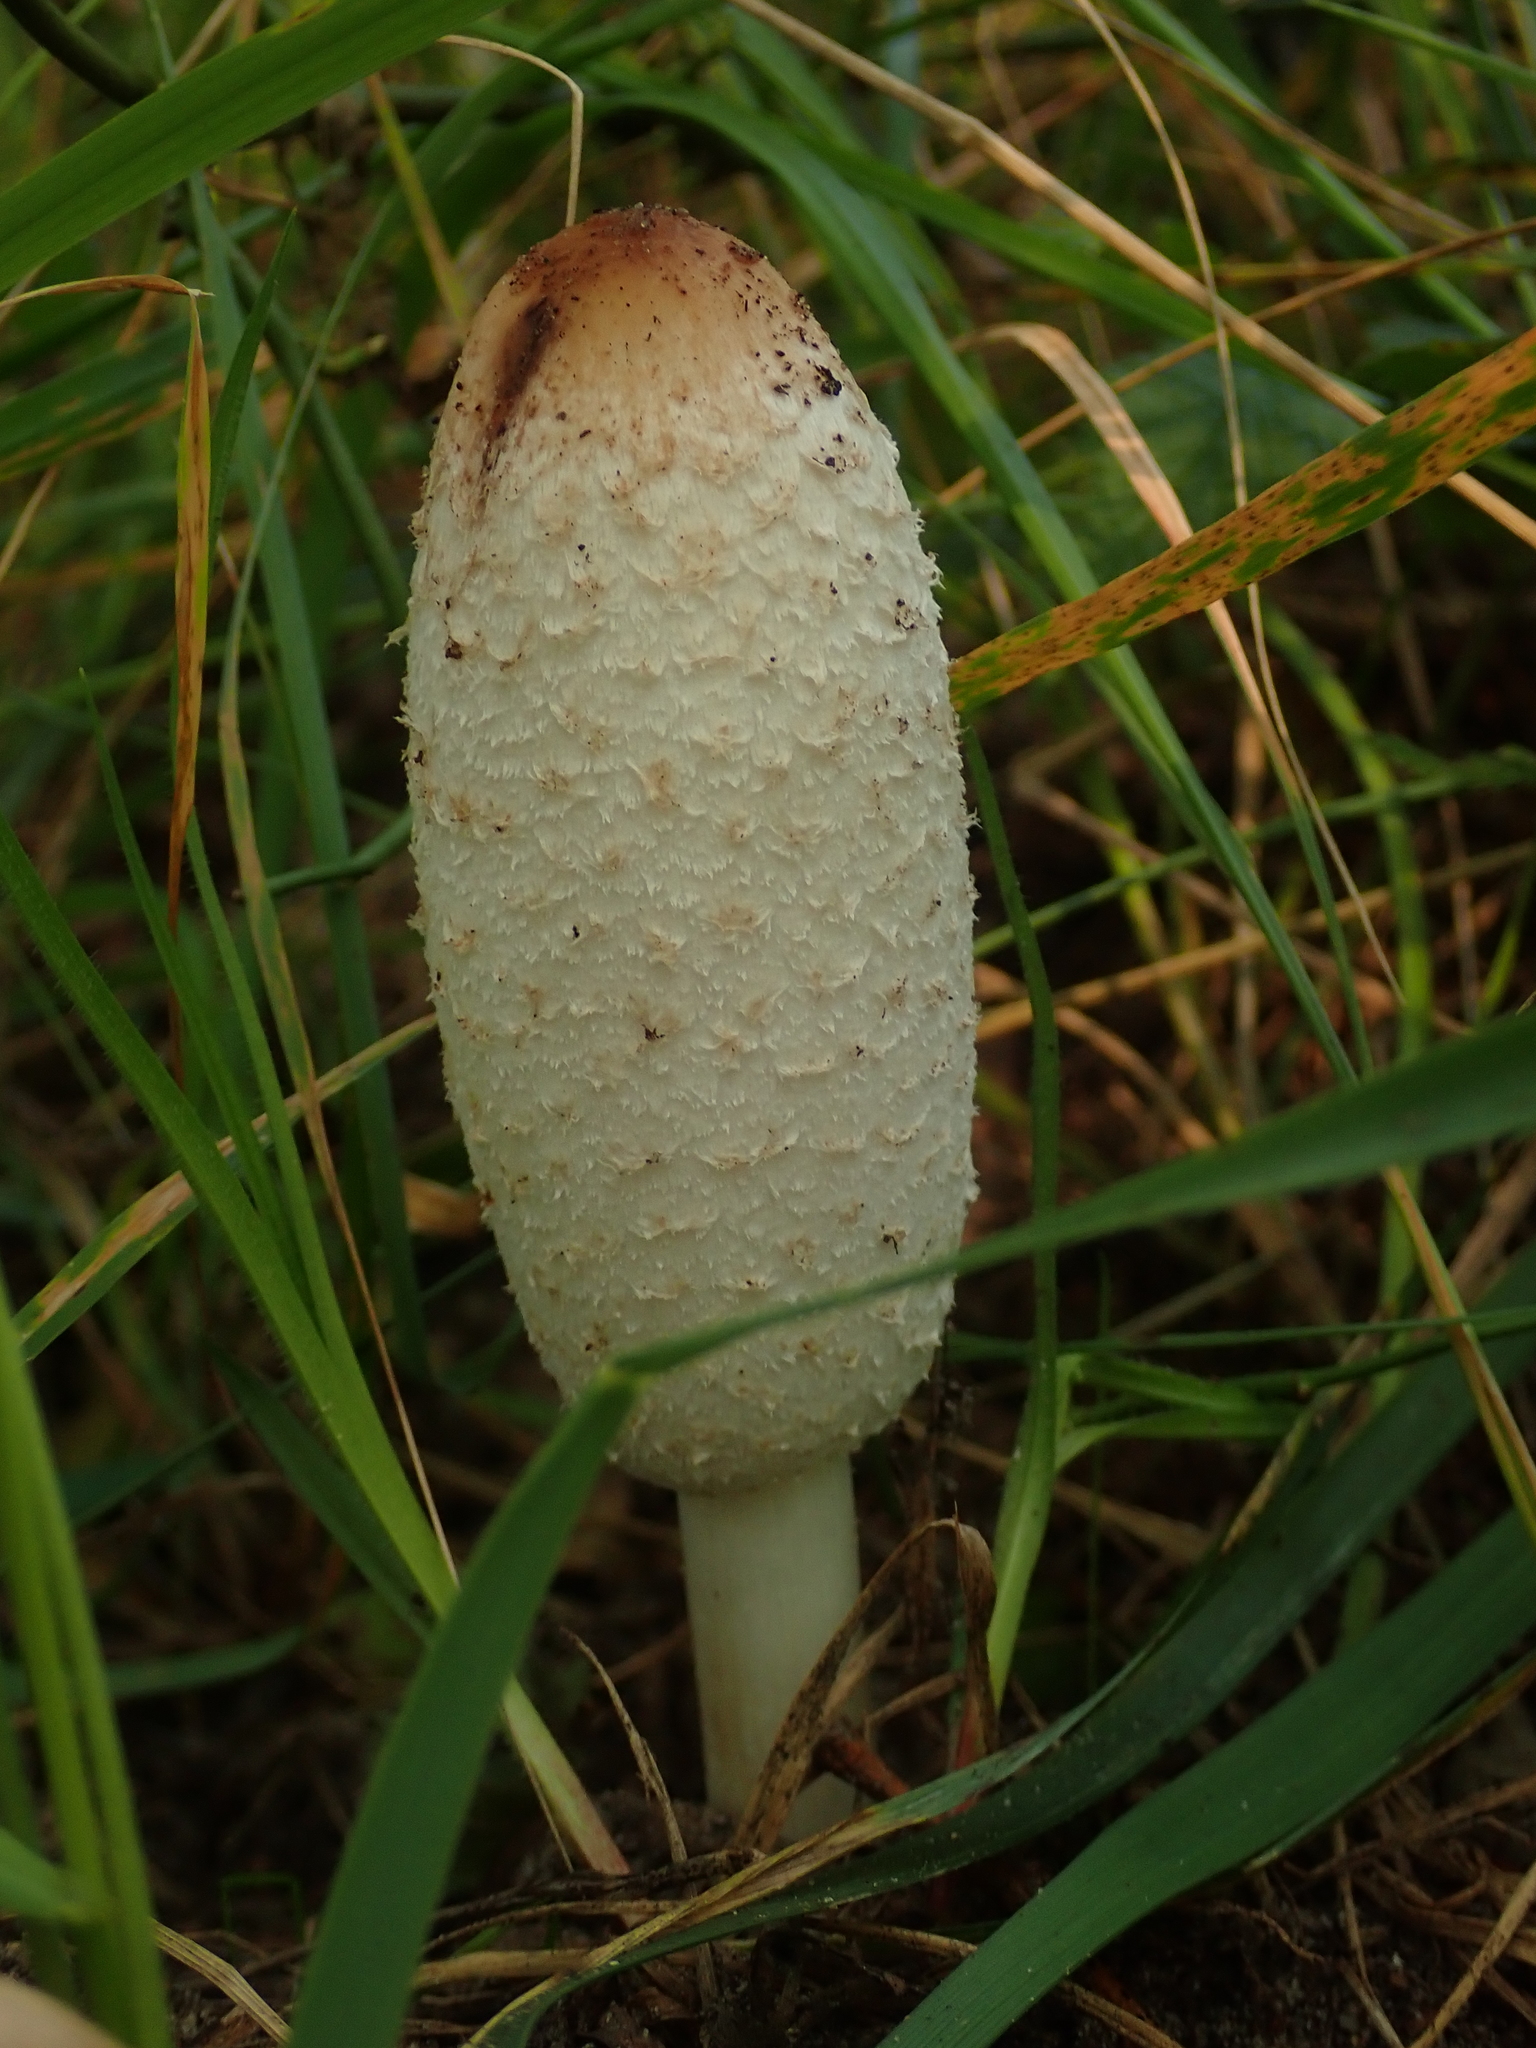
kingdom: Fungi
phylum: Basidiomycota
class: Agaricomycetes
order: Agaricales
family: Agaricaceae
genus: Coprinus
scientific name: Coprinus comatus
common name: Lawyer's wig
